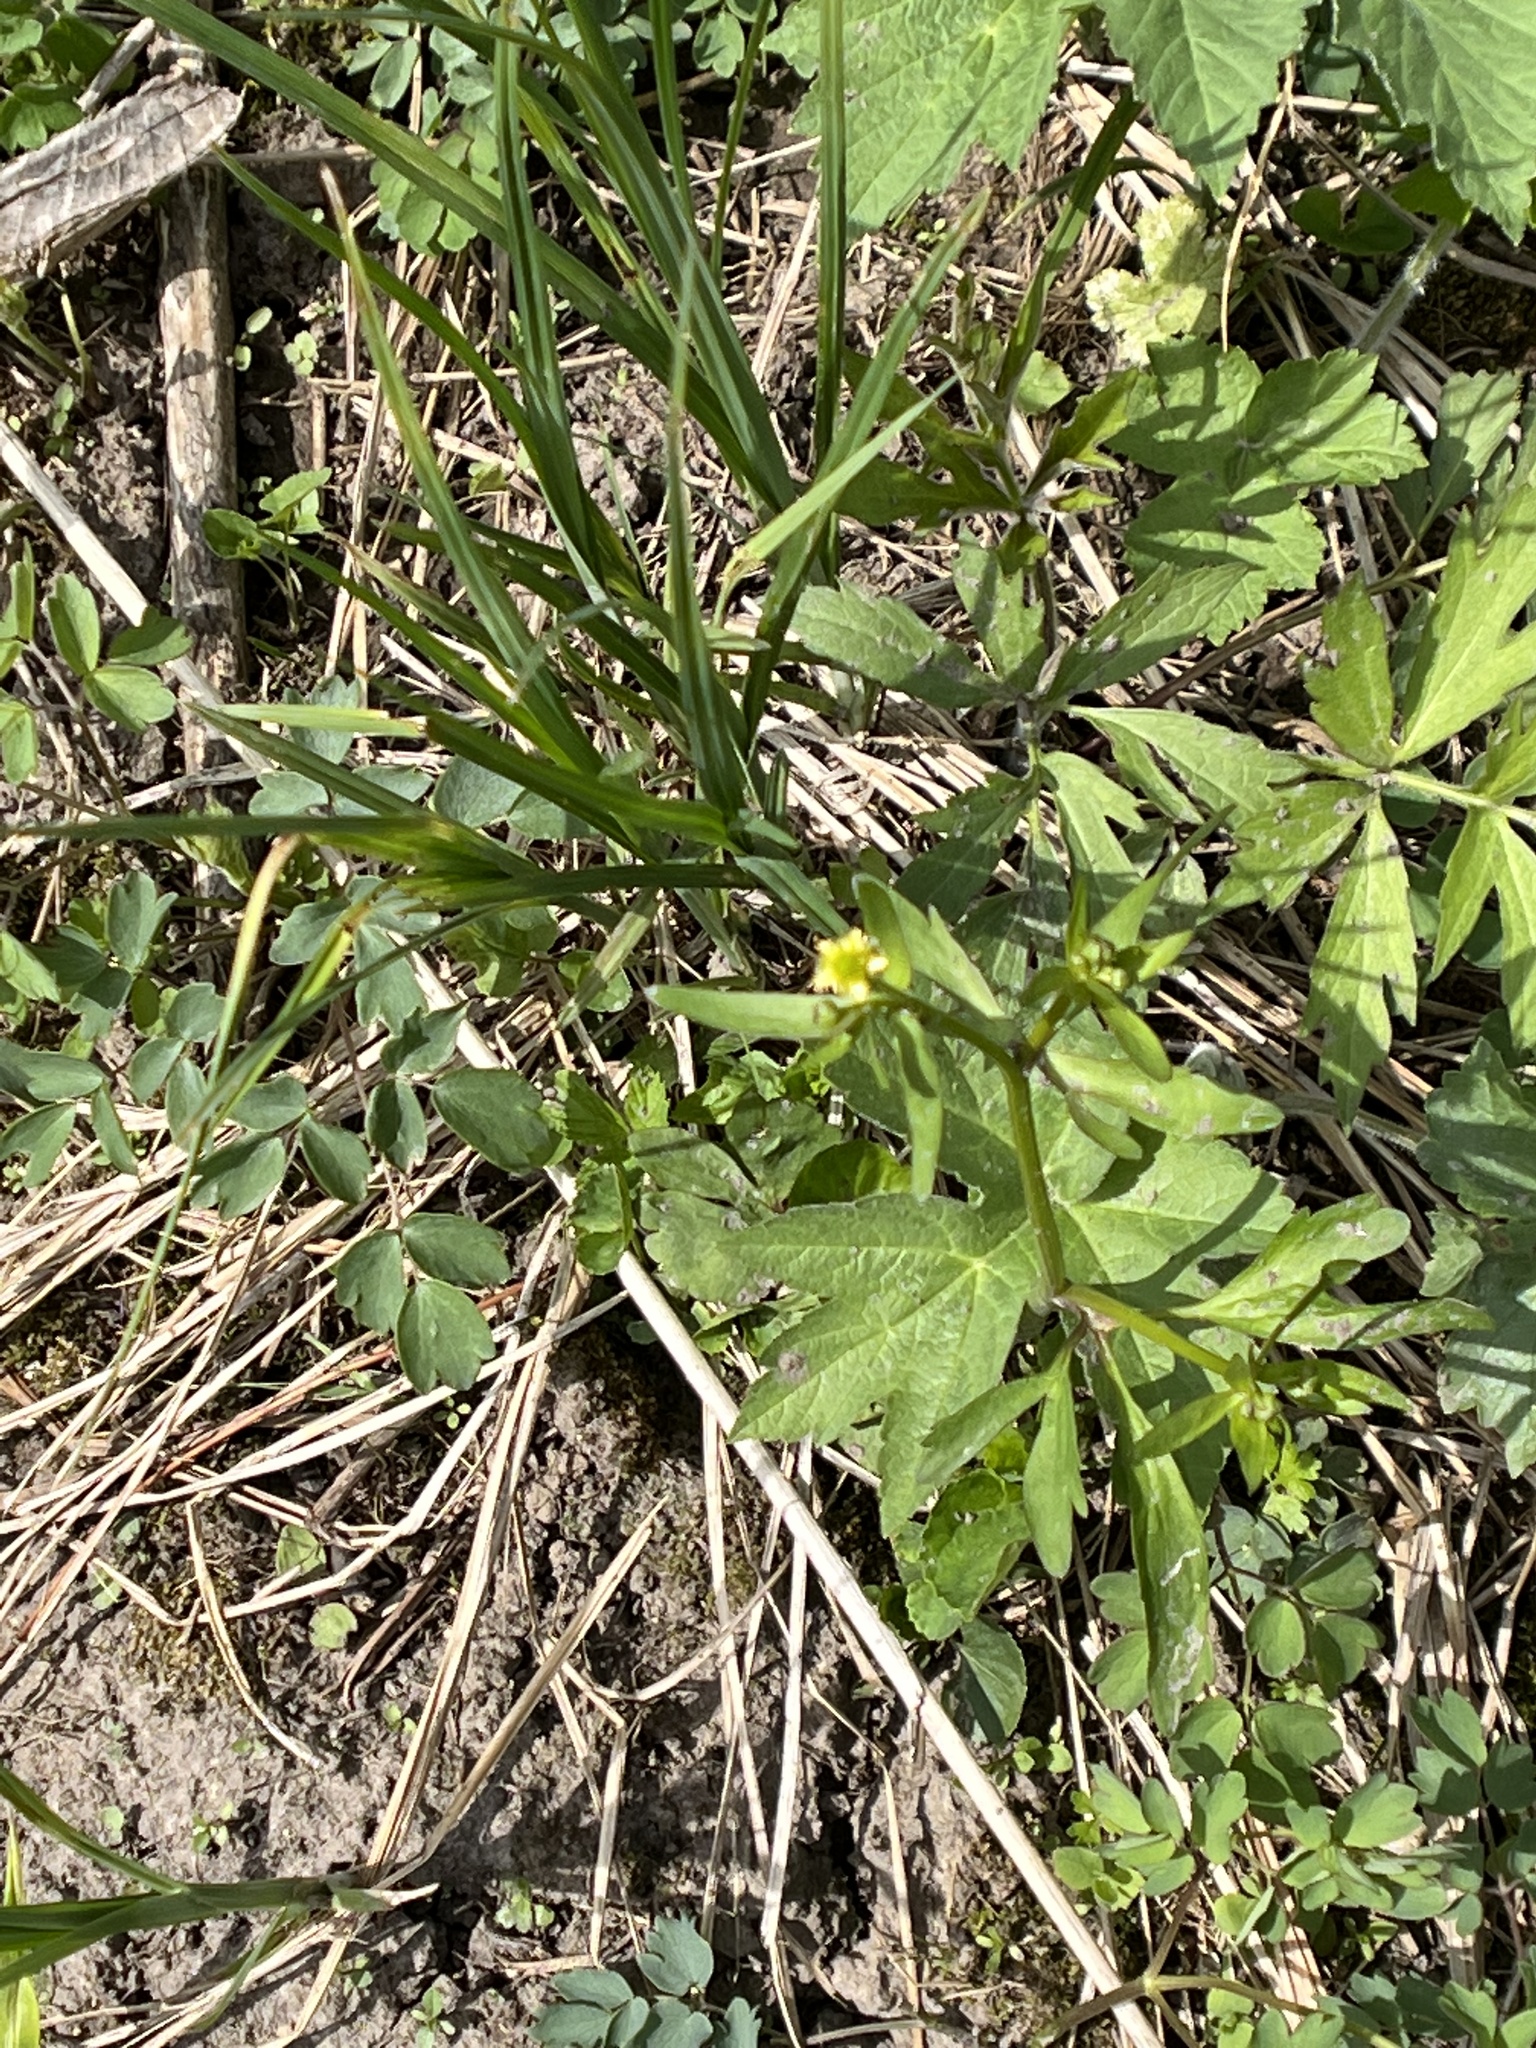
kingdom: Plantae
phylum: Tracheophyta
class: Magnoliopsida
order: Ranunculales
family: Ranunculaceae
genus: Ranunculus
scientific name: Ranunculus abortivus
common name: Early wood buttercup
